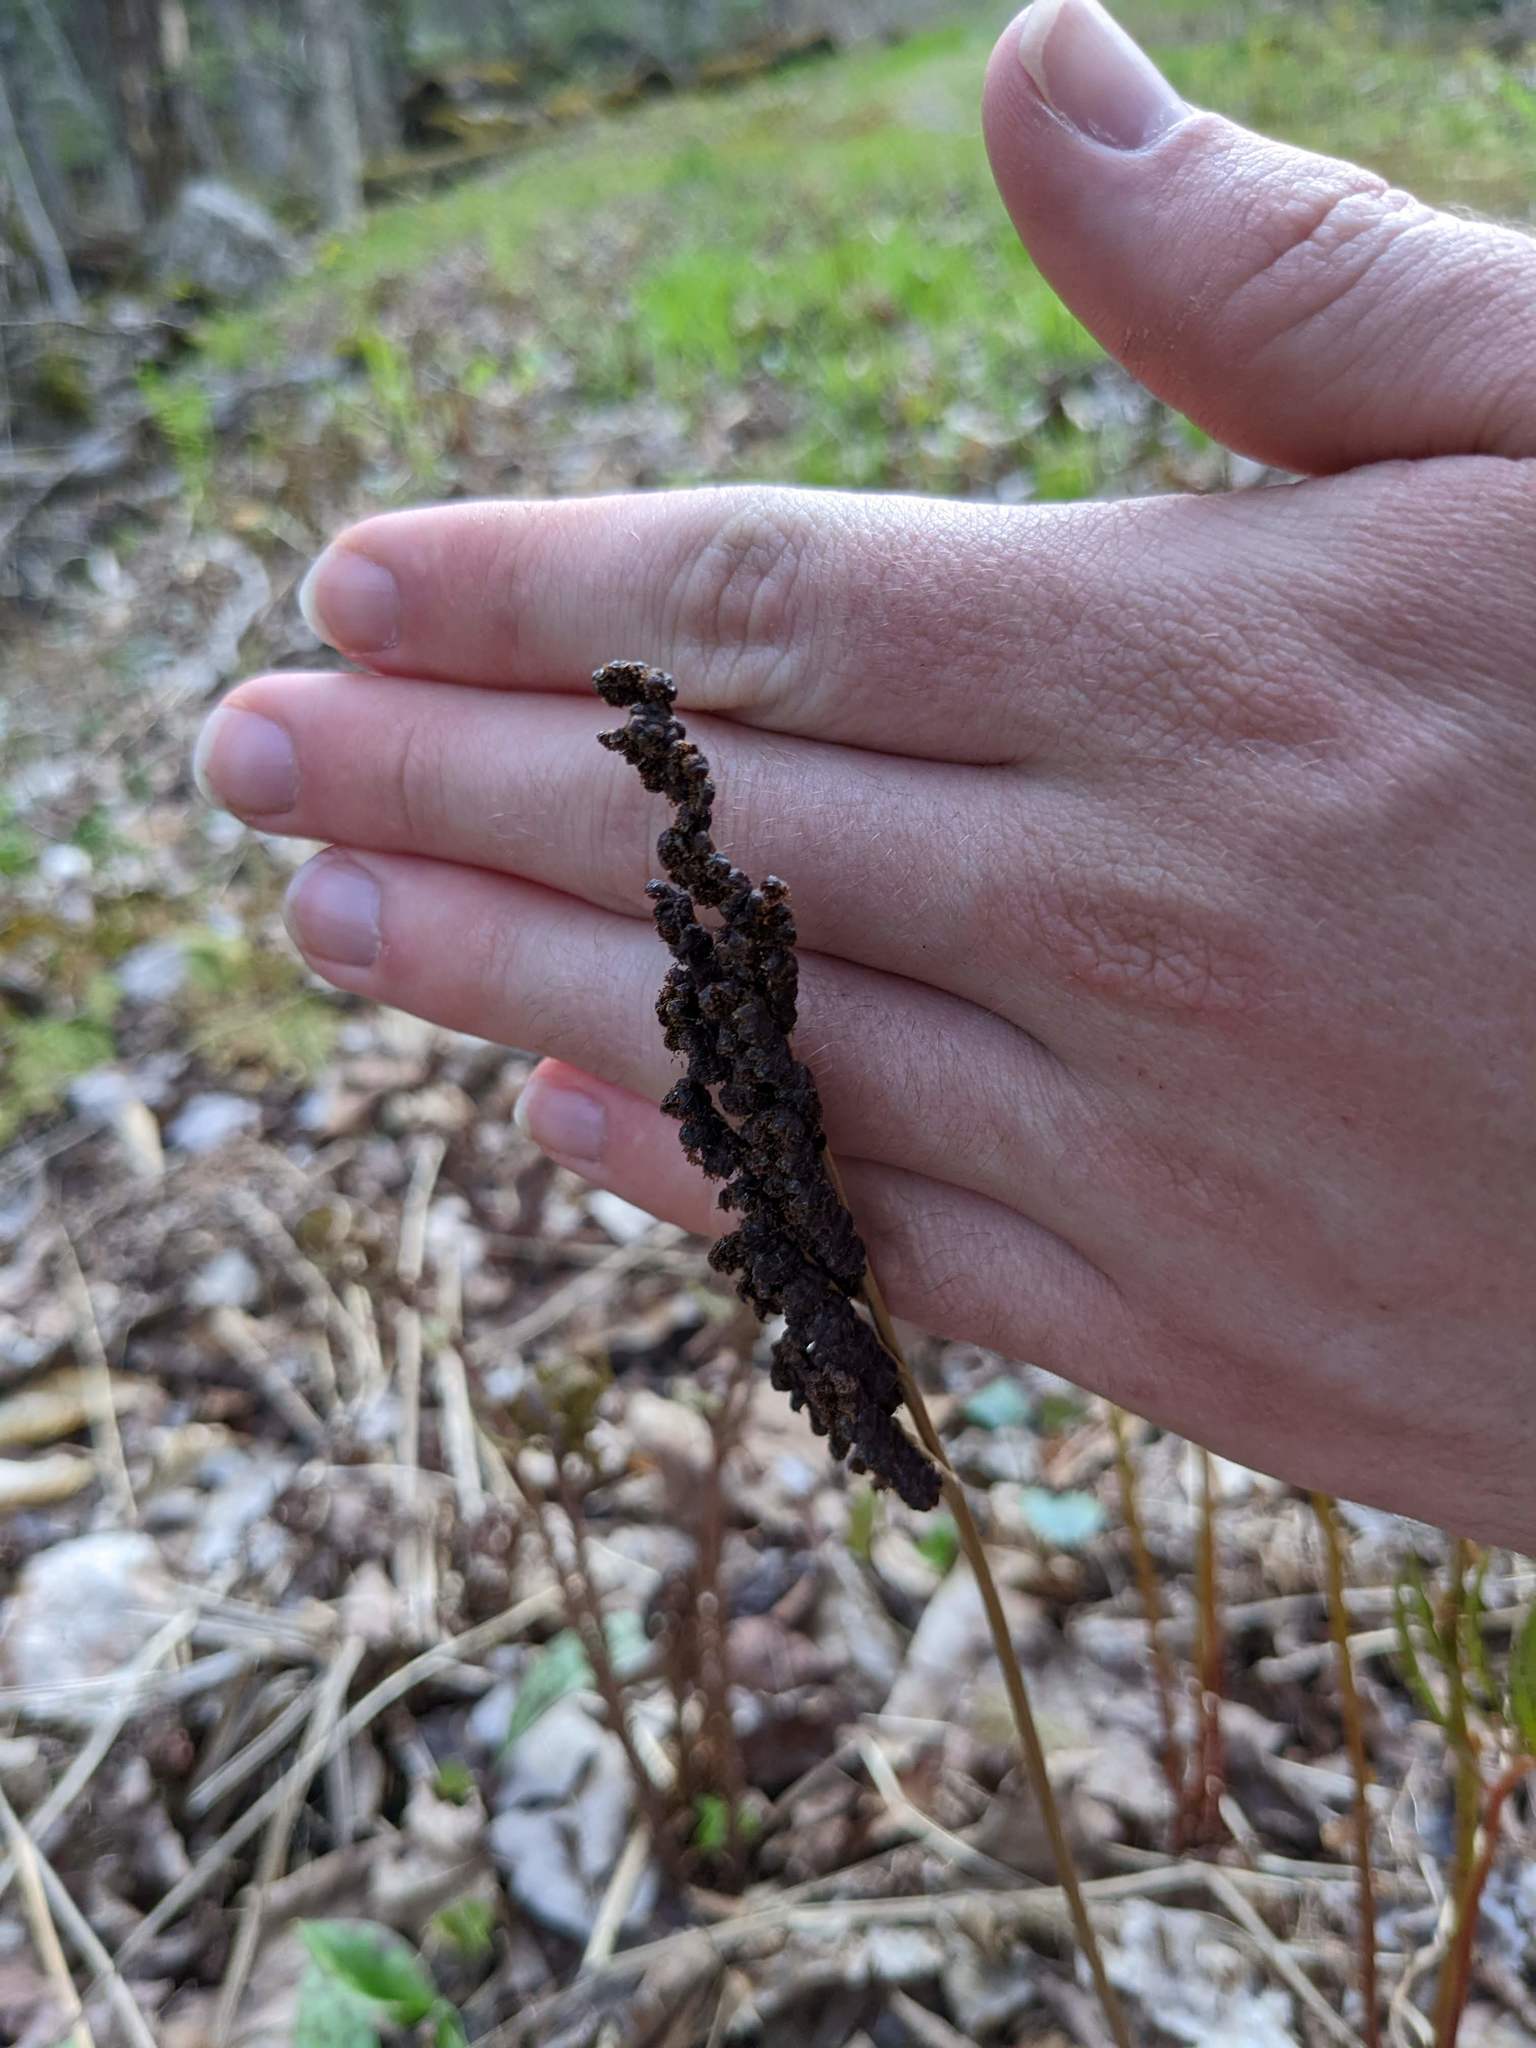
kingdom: Plantae
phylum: Tracheophyta
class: Polypodiopsida
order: Polypodiales
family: Onocleaceae
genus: Onoclea
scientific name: Onoclea sensibilis
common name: Sensitive fern
